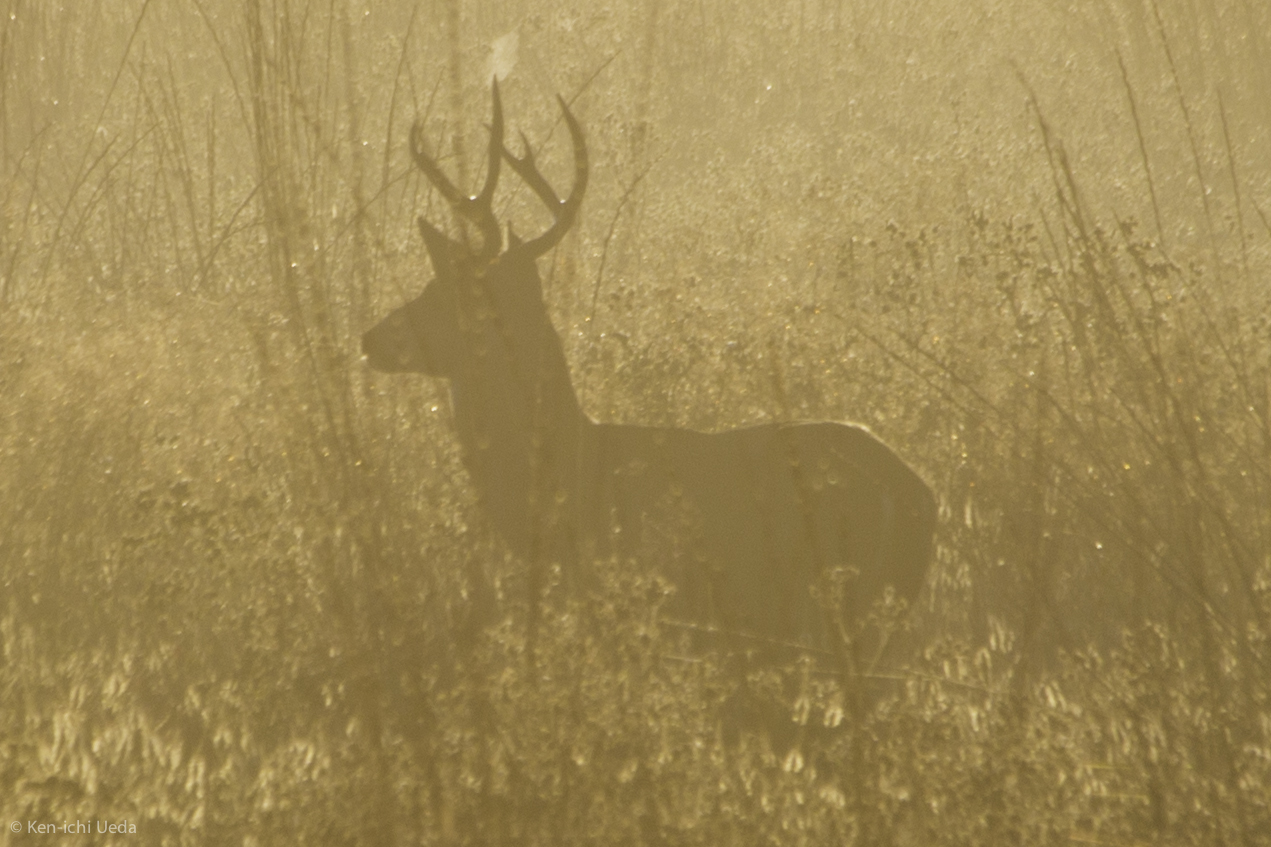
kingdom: Animalia
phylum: Chordata
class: Mammalia
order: Artiodactyla
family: Cervidae
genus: Odocoileus
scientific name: Odocoileus hemionus
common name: Mule deer
